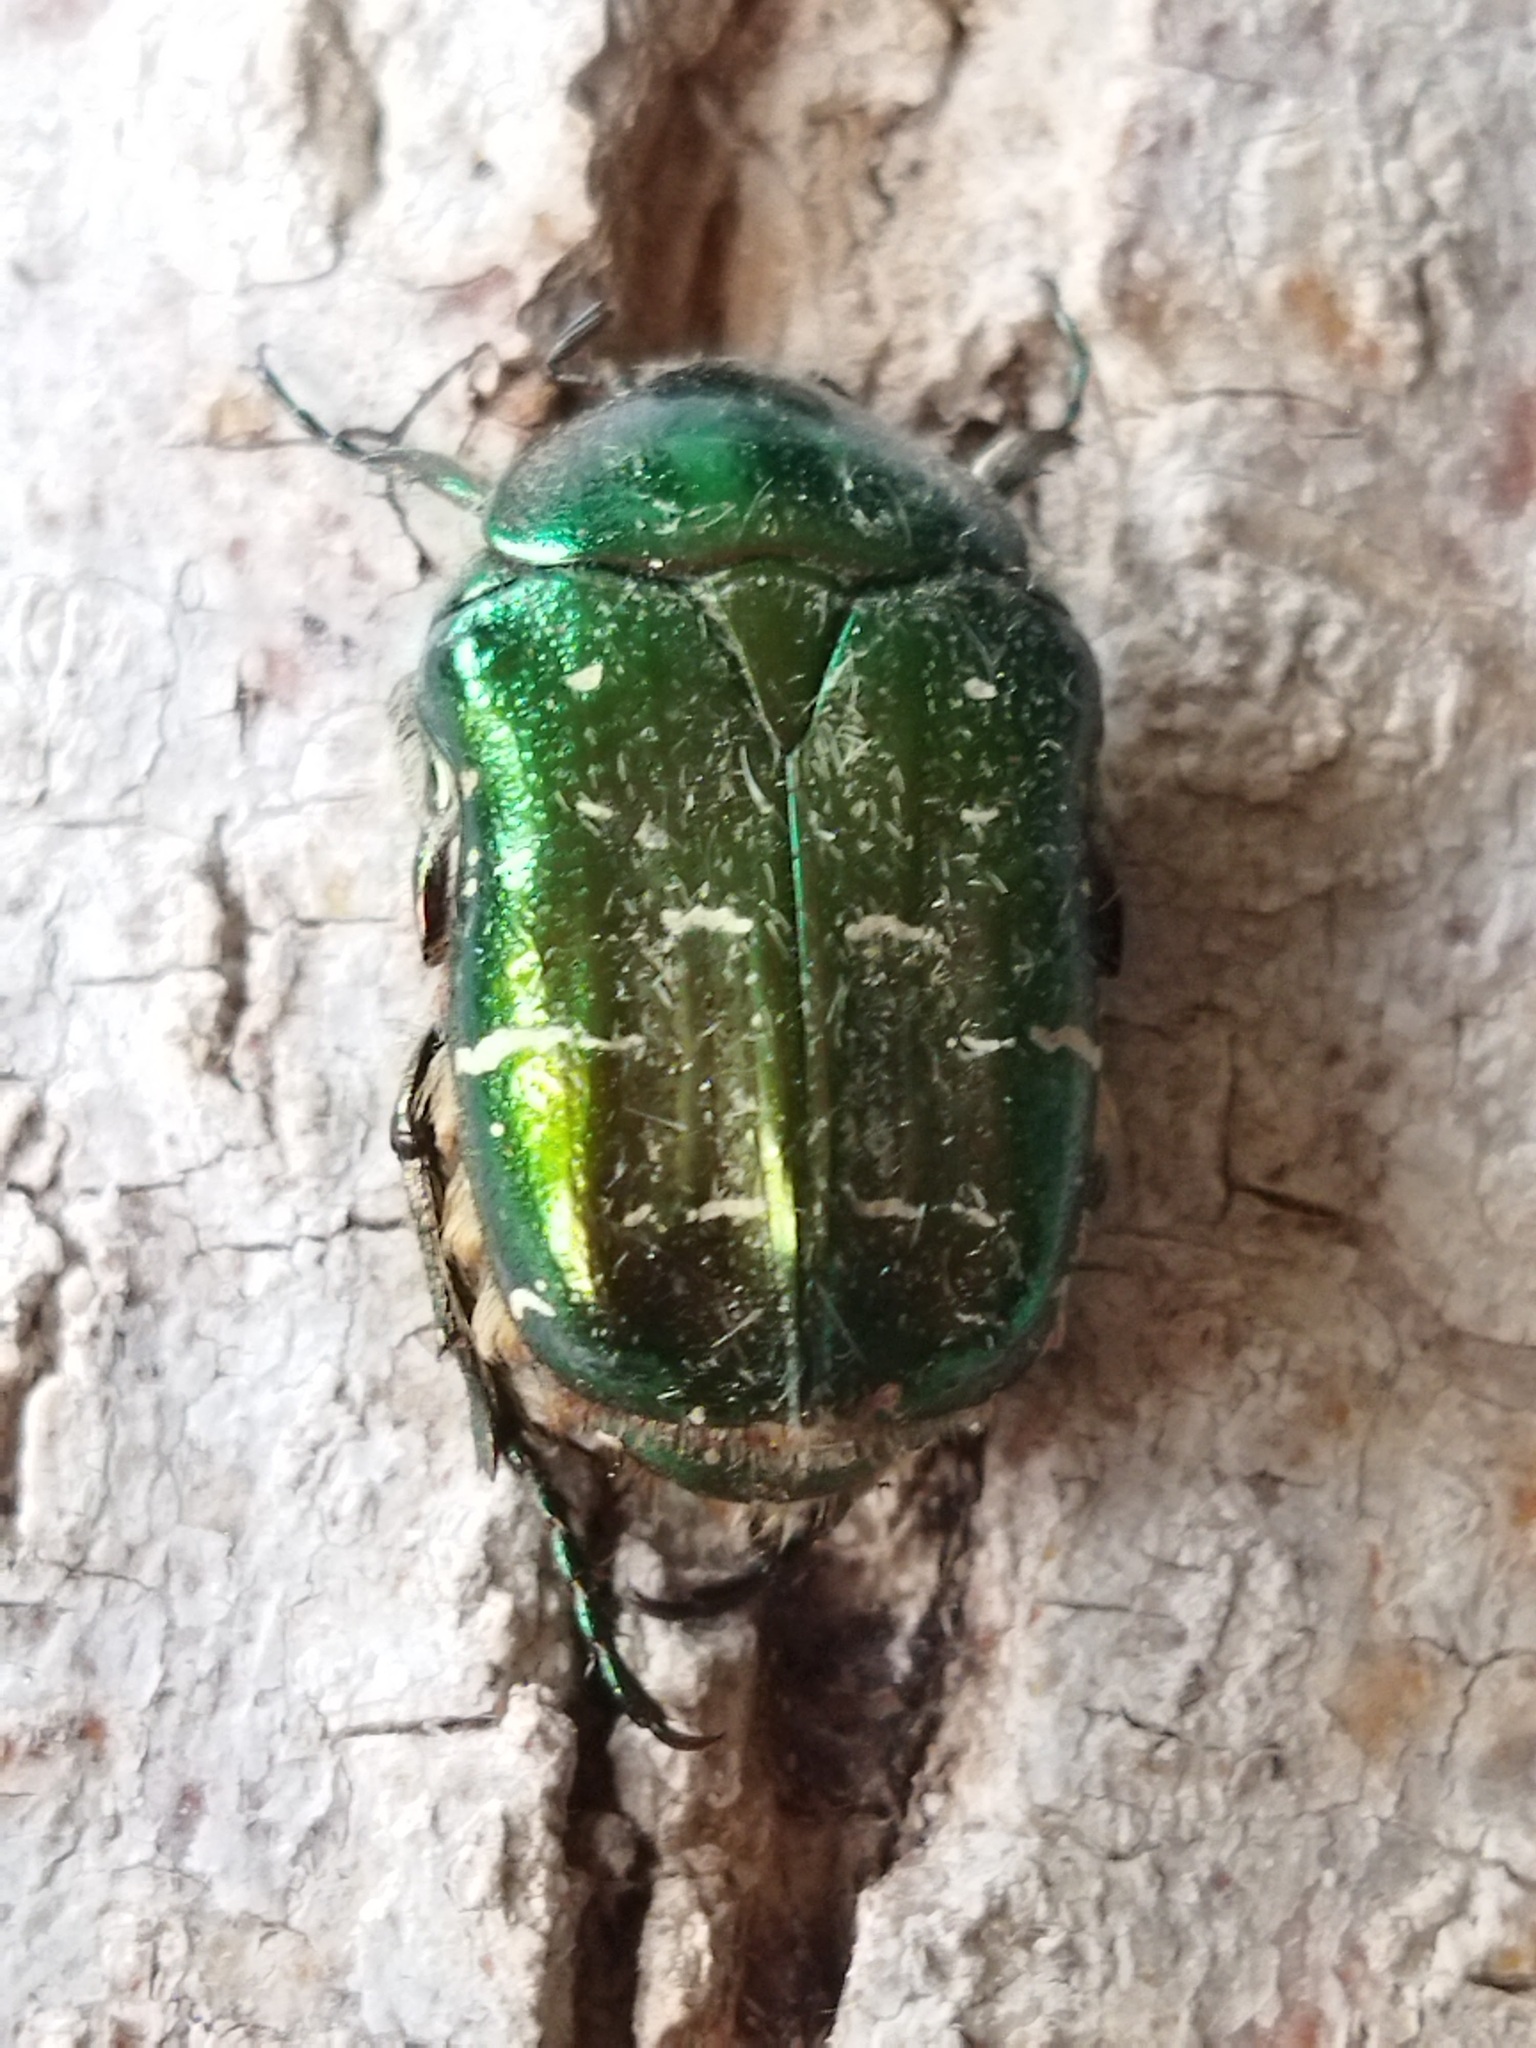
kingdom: Animalia
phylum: Arthropoda
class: Insecta
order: Coleoptera
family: Scarabaeidae
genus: Cetonia
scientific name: Cetonia aurata
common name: Rose chafer
